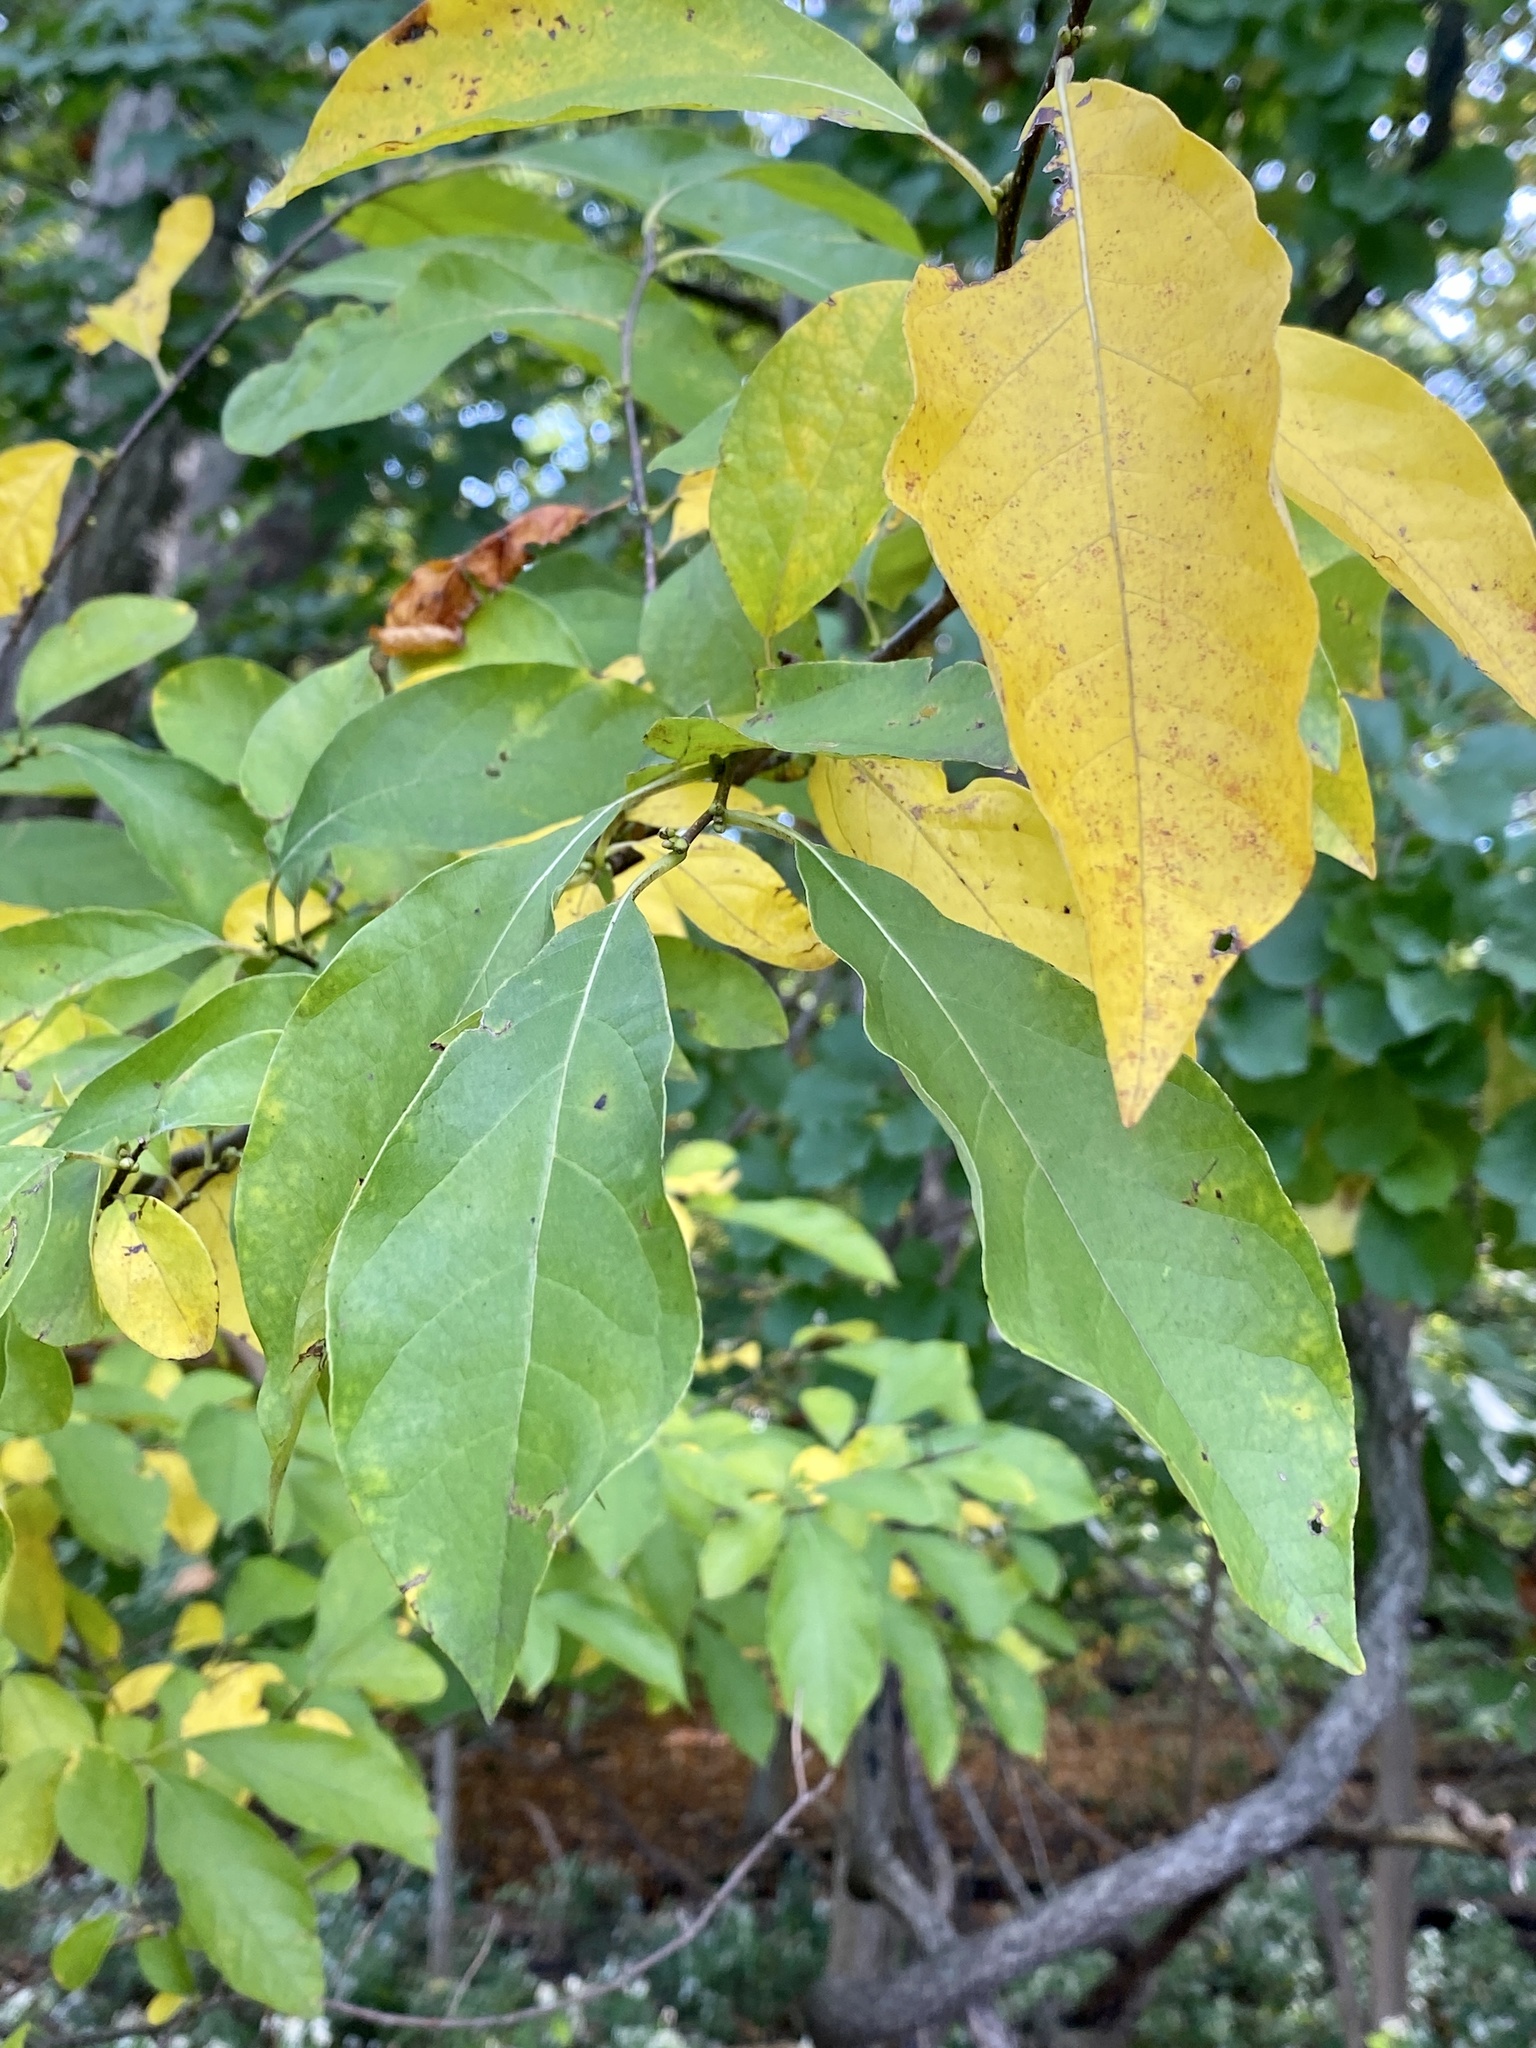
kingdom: Plantae
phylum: Tracheophyta
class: Magnoliopsida
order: Laurales
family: Lauraceae
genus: Lindera
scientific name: Lindera benzoin
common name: Spicebush
